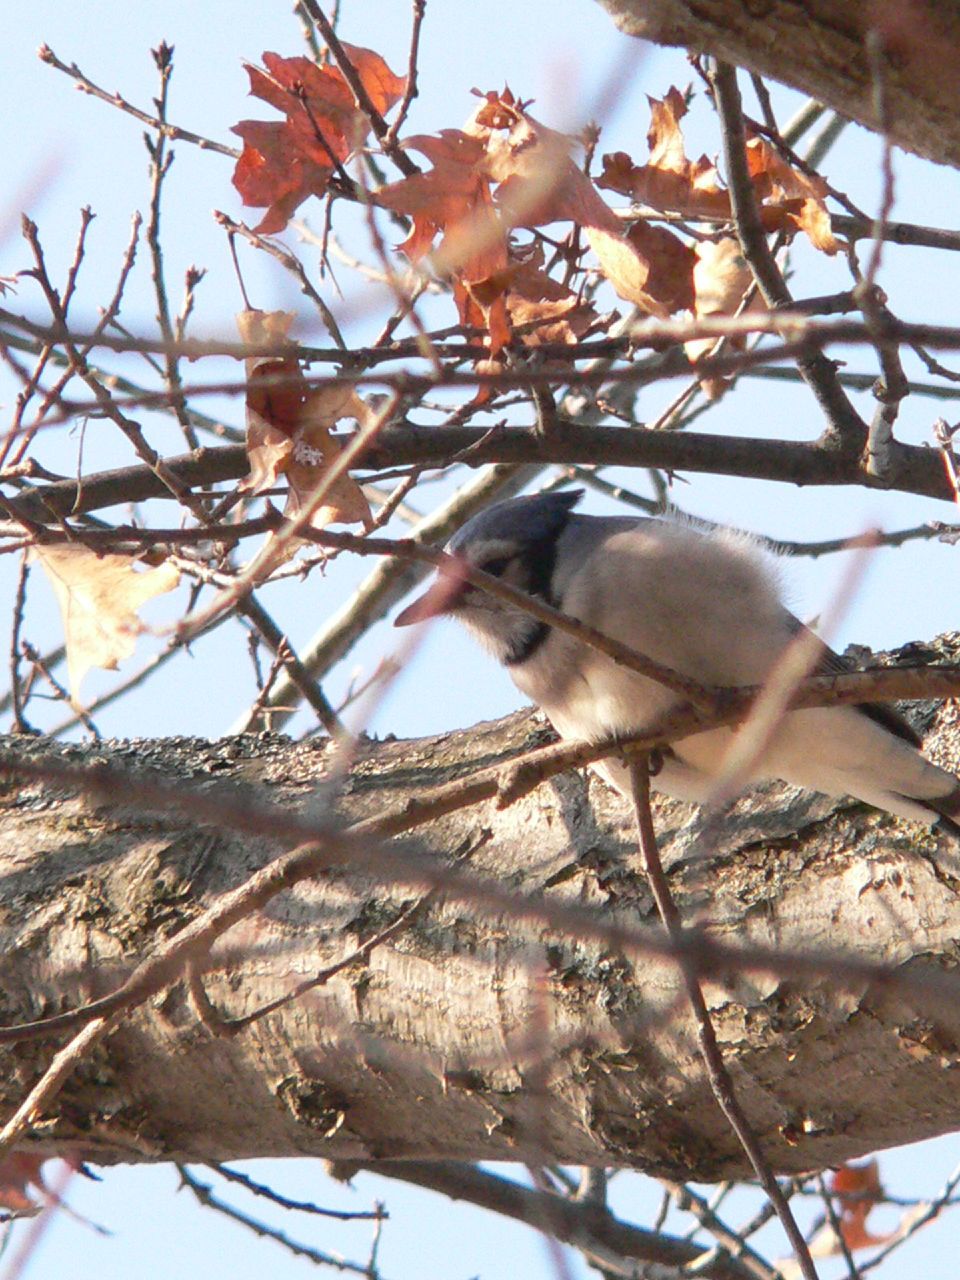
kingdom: Animalia
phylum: Chordata
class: Aves
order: Passeriformes
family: Corvidae
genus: Cyanocitta
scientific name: Cyanocitta cristata
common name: Blue jay
